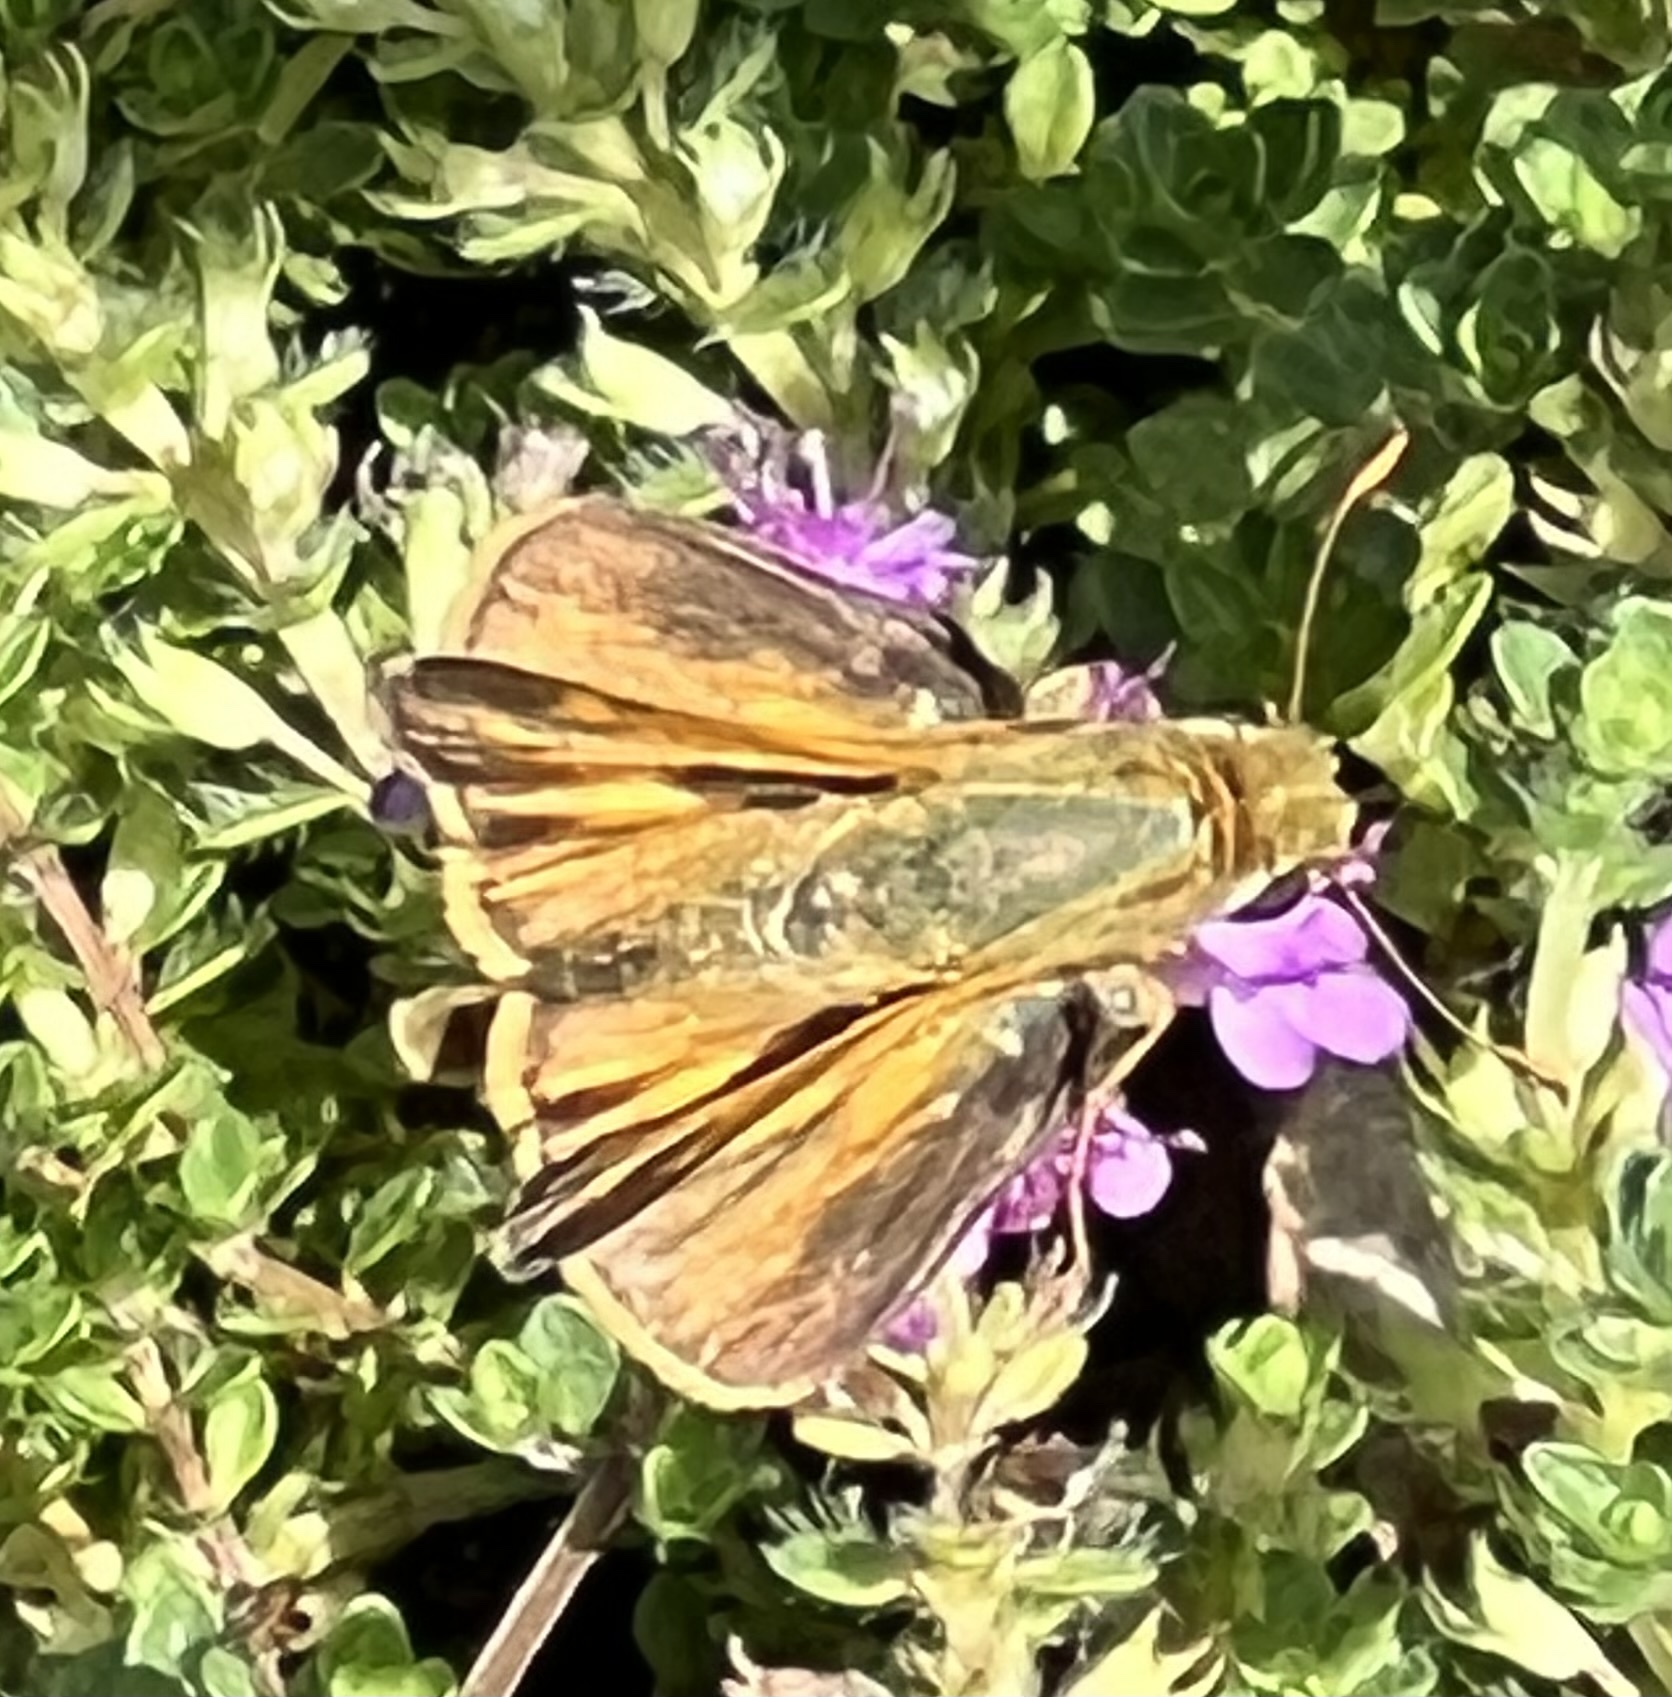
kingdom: Animalia
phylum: Arthropoda
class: Insecta
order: Lepidoptera
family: Hesperiidae
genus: Atalopedes
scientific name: Atalopedes
